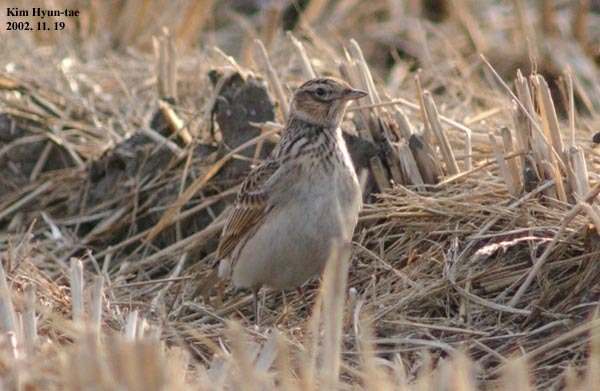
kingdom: Animalia
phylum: Chordata
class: Aves
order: Passeriformes
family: Alaudidae
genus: Alauda
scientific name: Alauda arvensis
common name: Eurasian skylark
